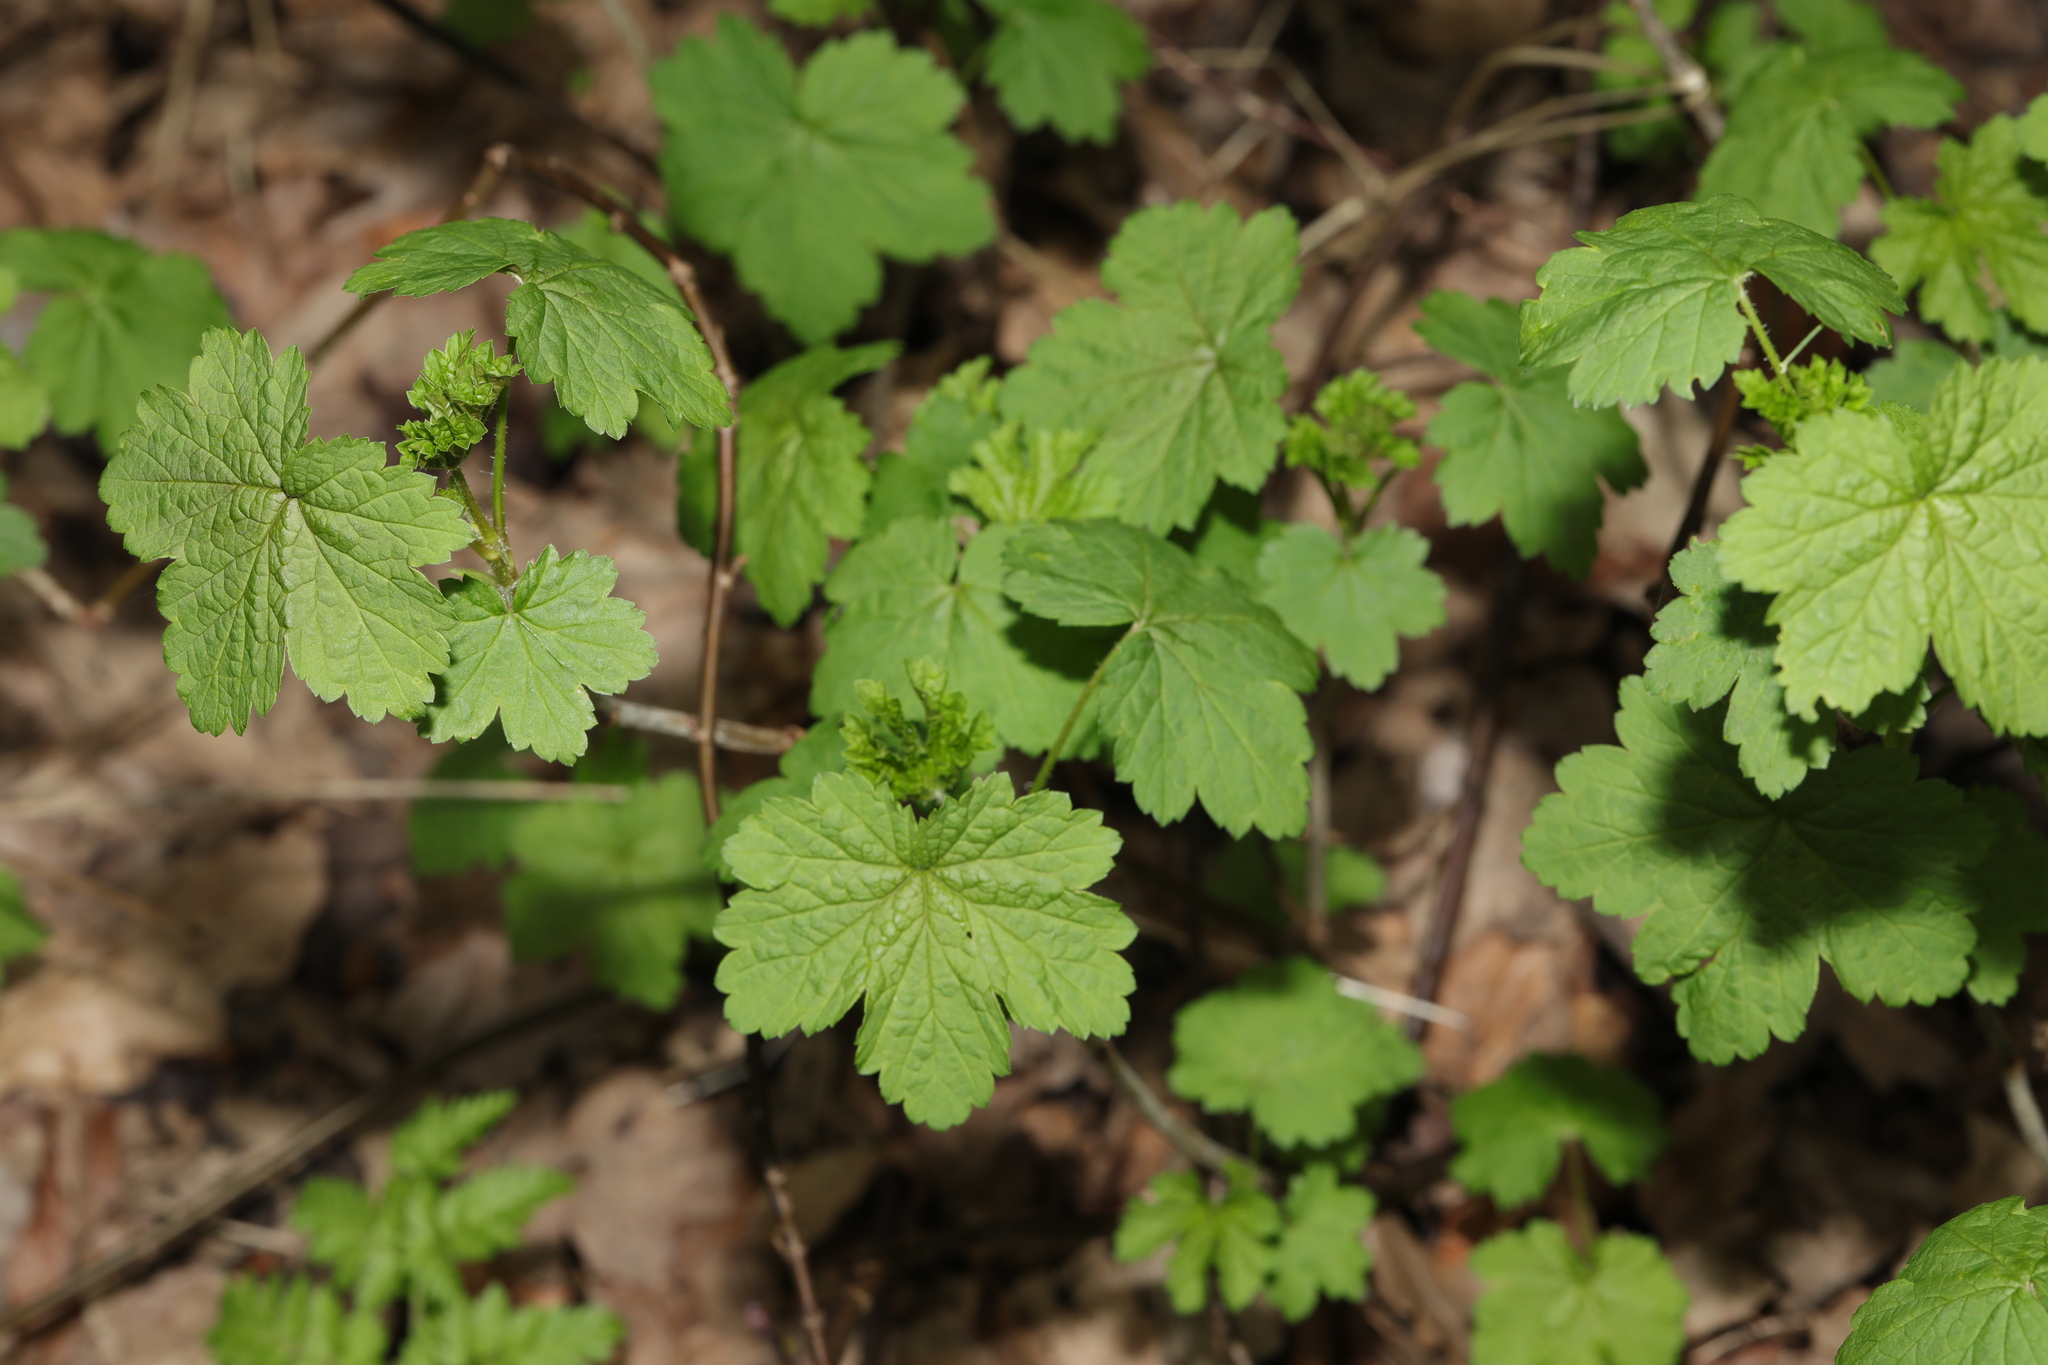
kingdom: Plantae
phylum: Tracheophyta
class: Magnoliopsida
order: Saxifragales
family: Grossulariaceae
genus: Ribes
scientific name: Ribes rubrum
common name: Red currant
